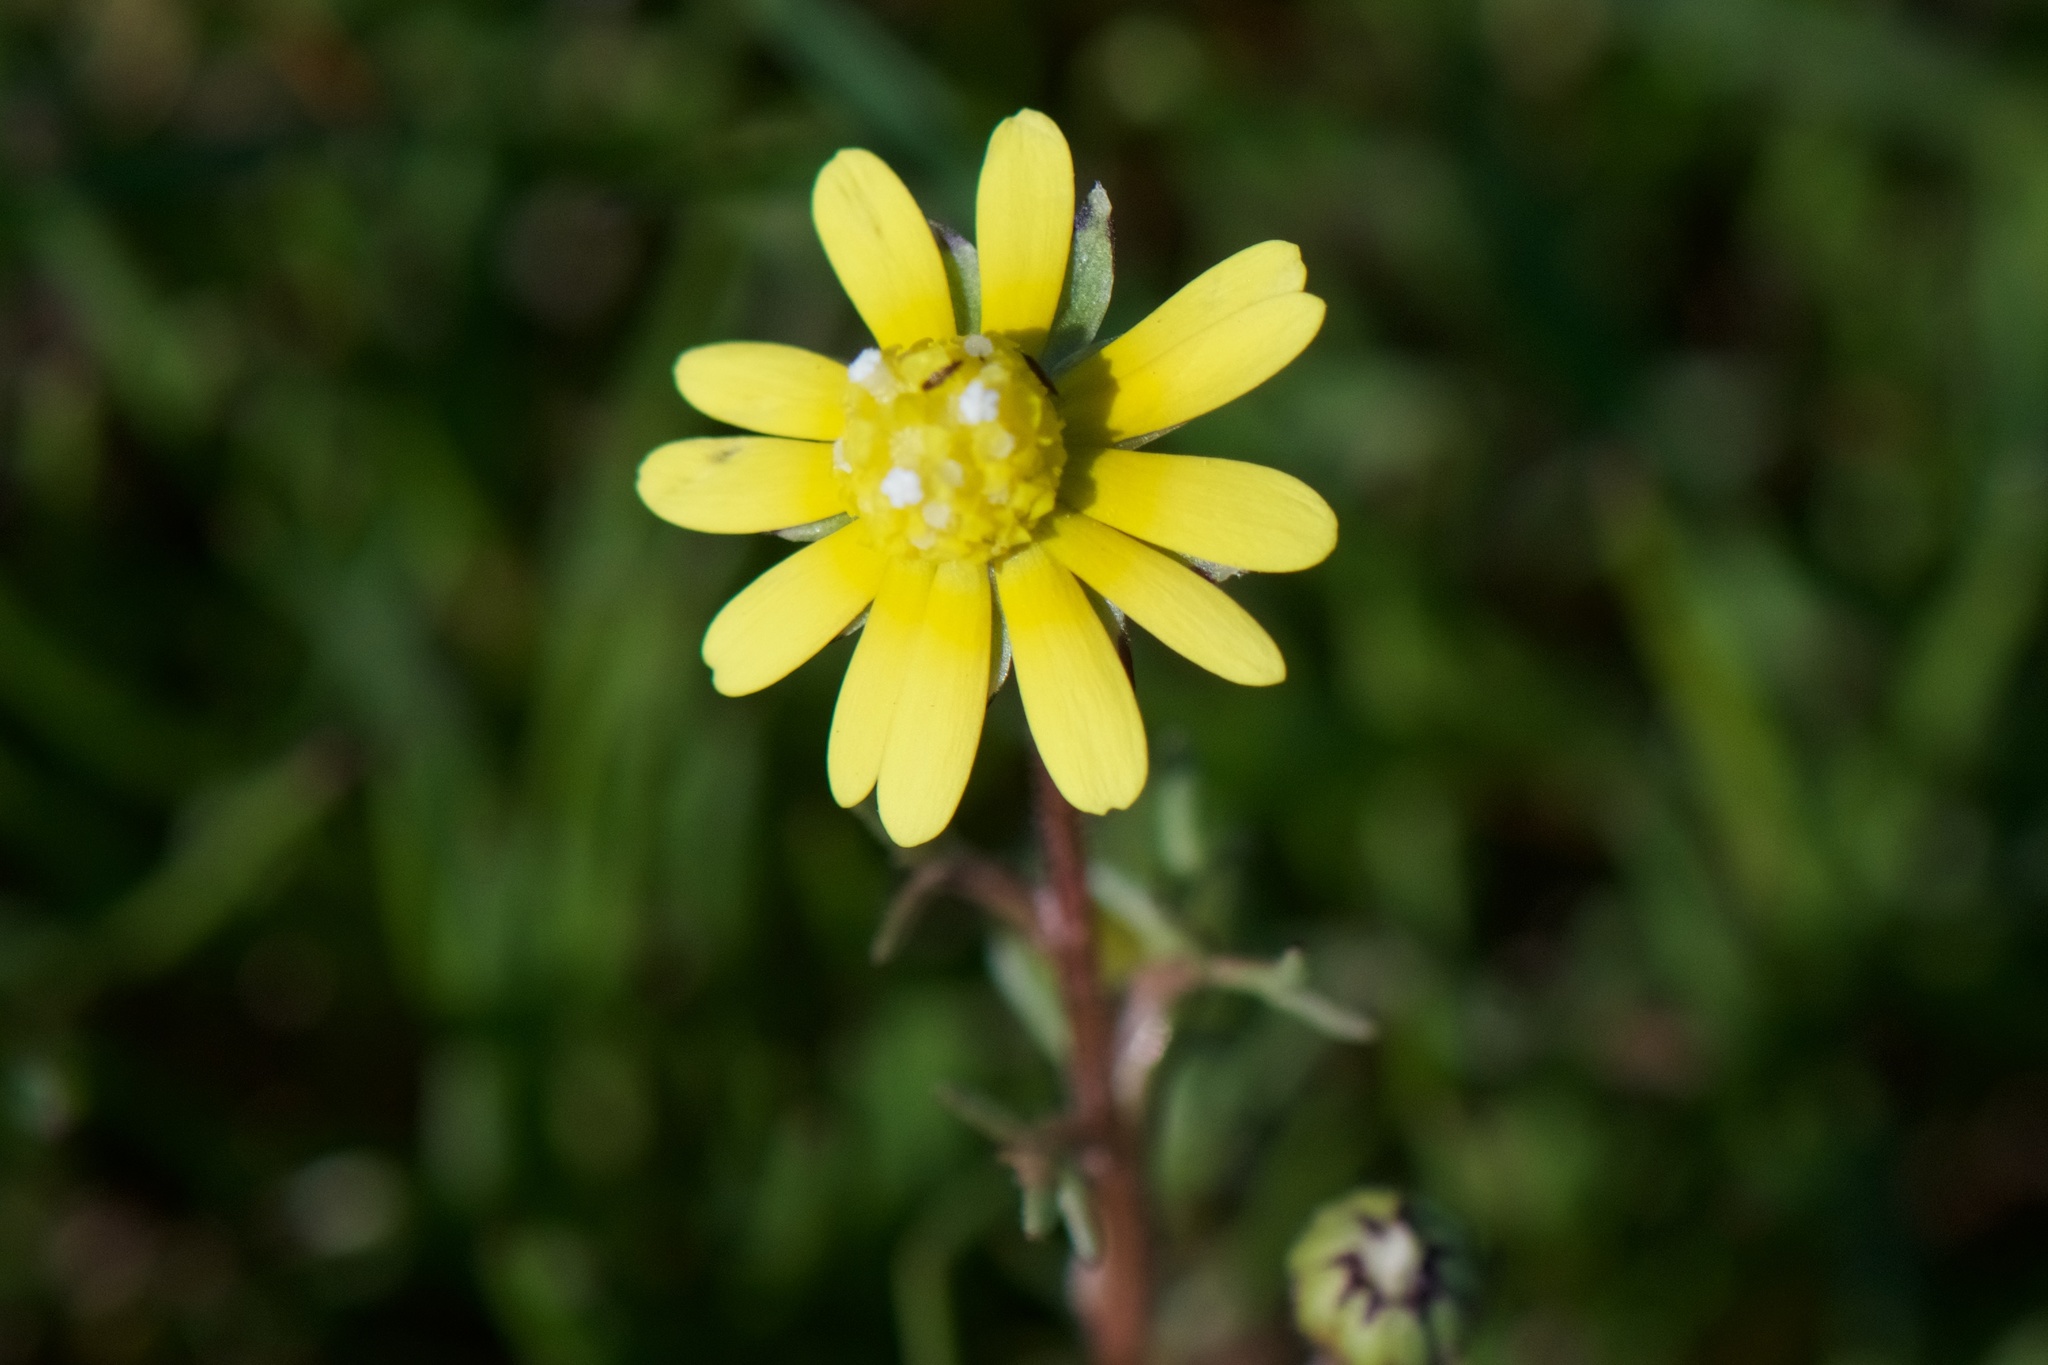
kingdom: Plantae
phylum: Tracheophyta
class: Magnoliopsida
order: Asterales
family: Asteraceae
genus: Blennosperma
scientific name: Blennosperma nanum
